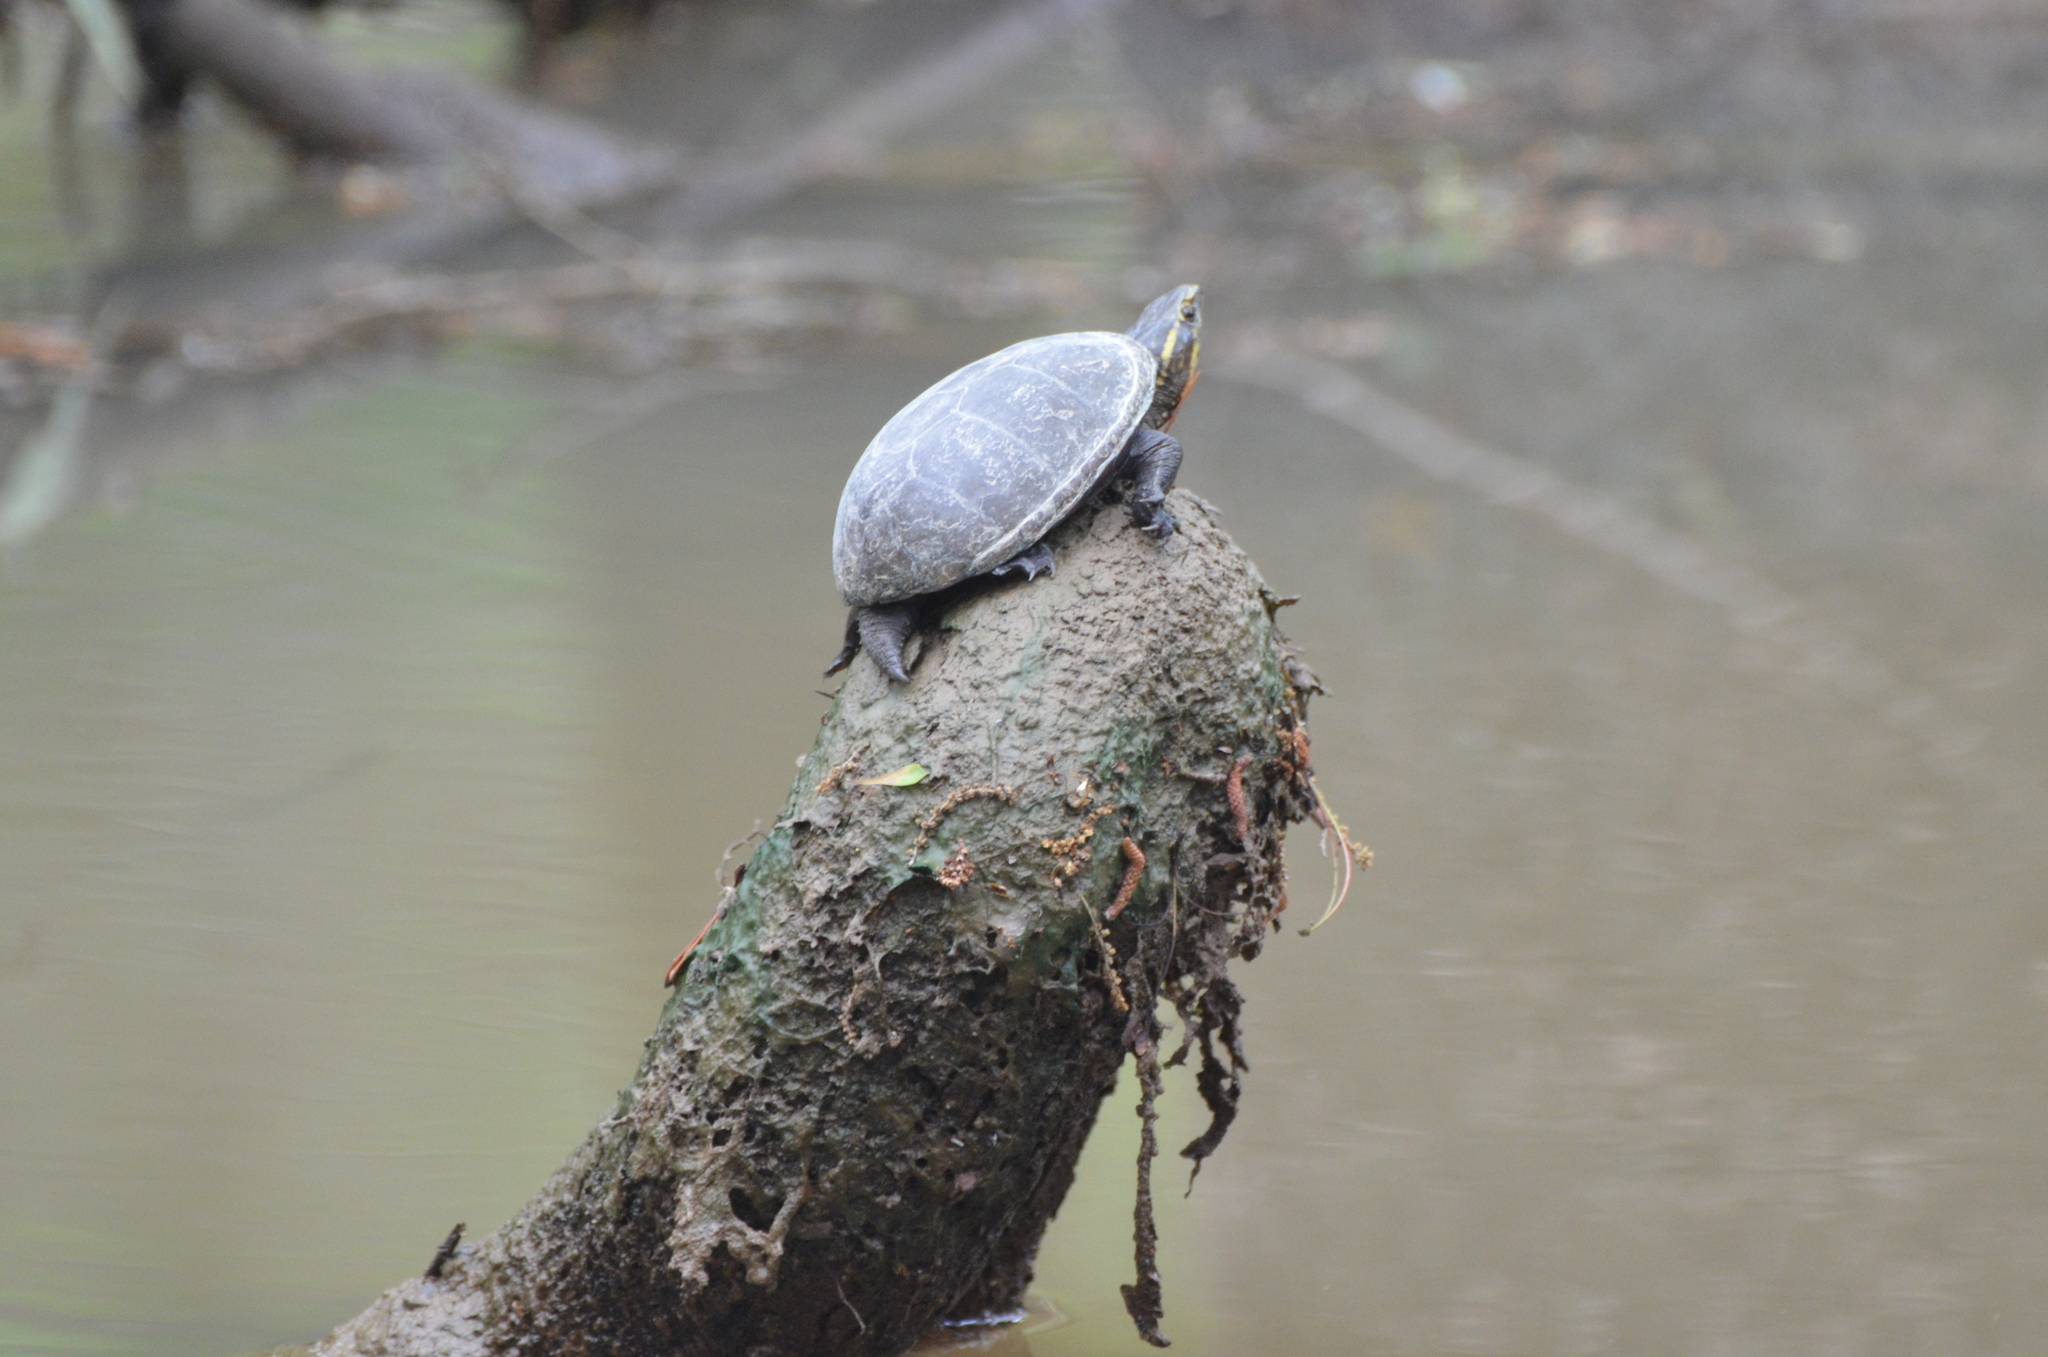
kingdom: Animalia
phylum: Chordata
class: Testudines
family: Kinosternidae
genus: Kinosternon
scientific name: Kinosternon subrubrum
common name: Eastern mud turtle
